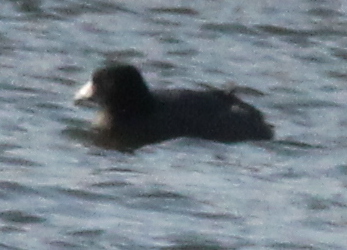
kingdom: Animalia
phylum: Chordata
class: Aves
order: Gruiformes
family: Rallidae
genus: Fulica
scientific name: Fulica americana
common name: American coot
